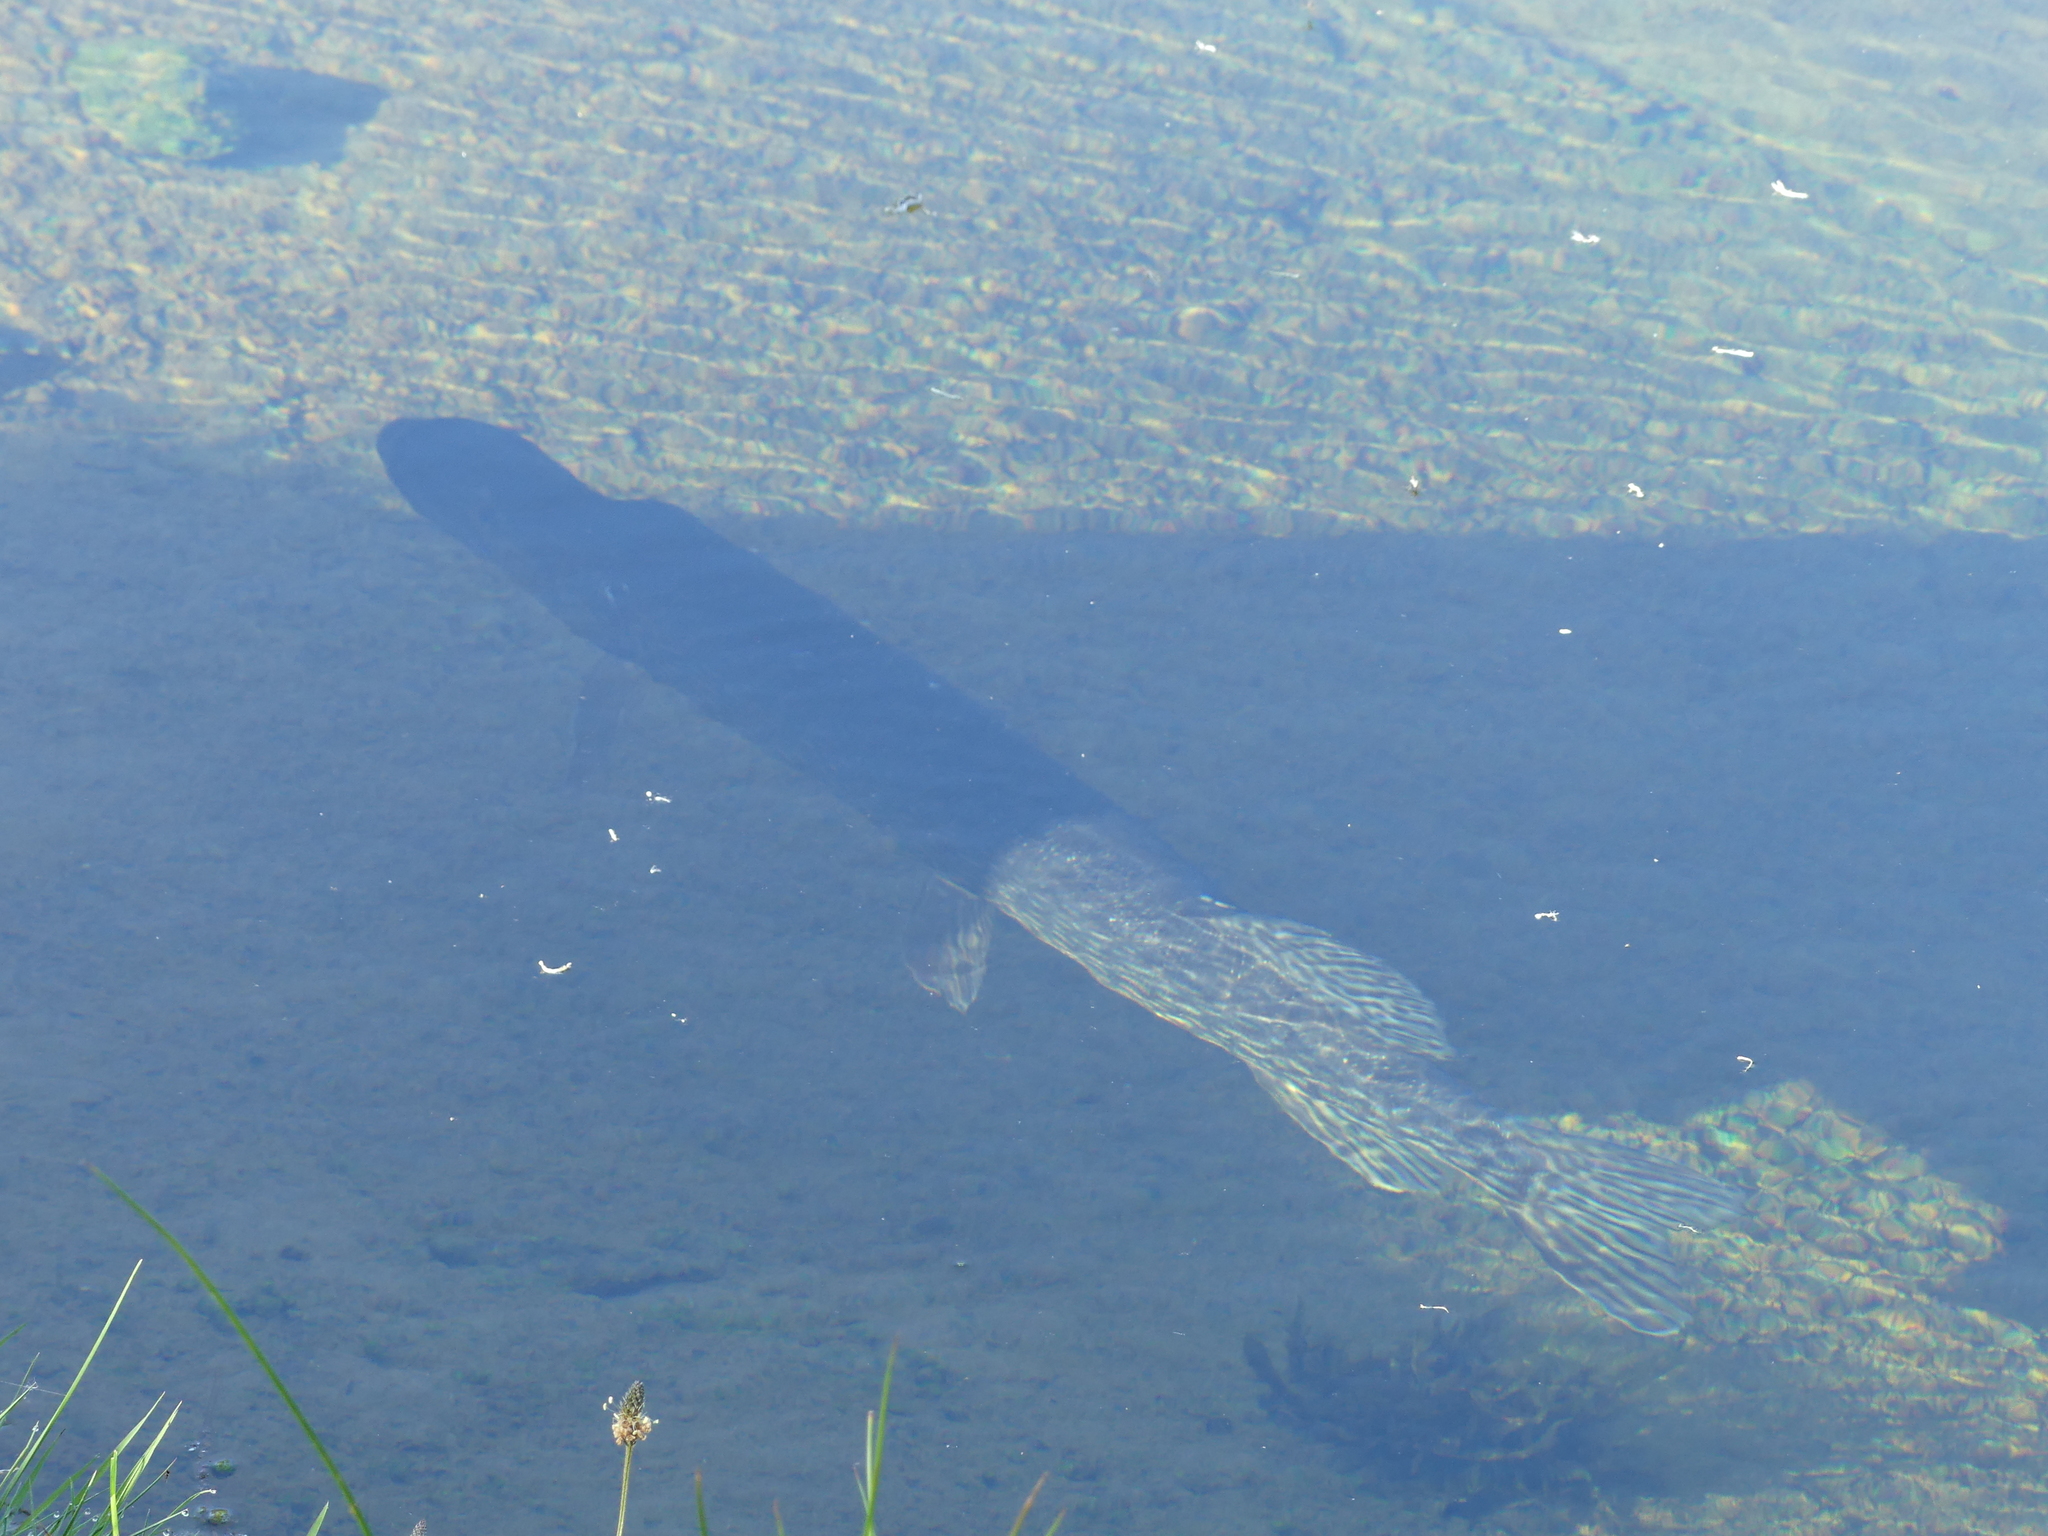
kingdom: Animalia
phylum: Chordata
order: Esociformes
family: Esocidae
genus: Esox
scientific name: Esox lucius
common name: Northern pike
